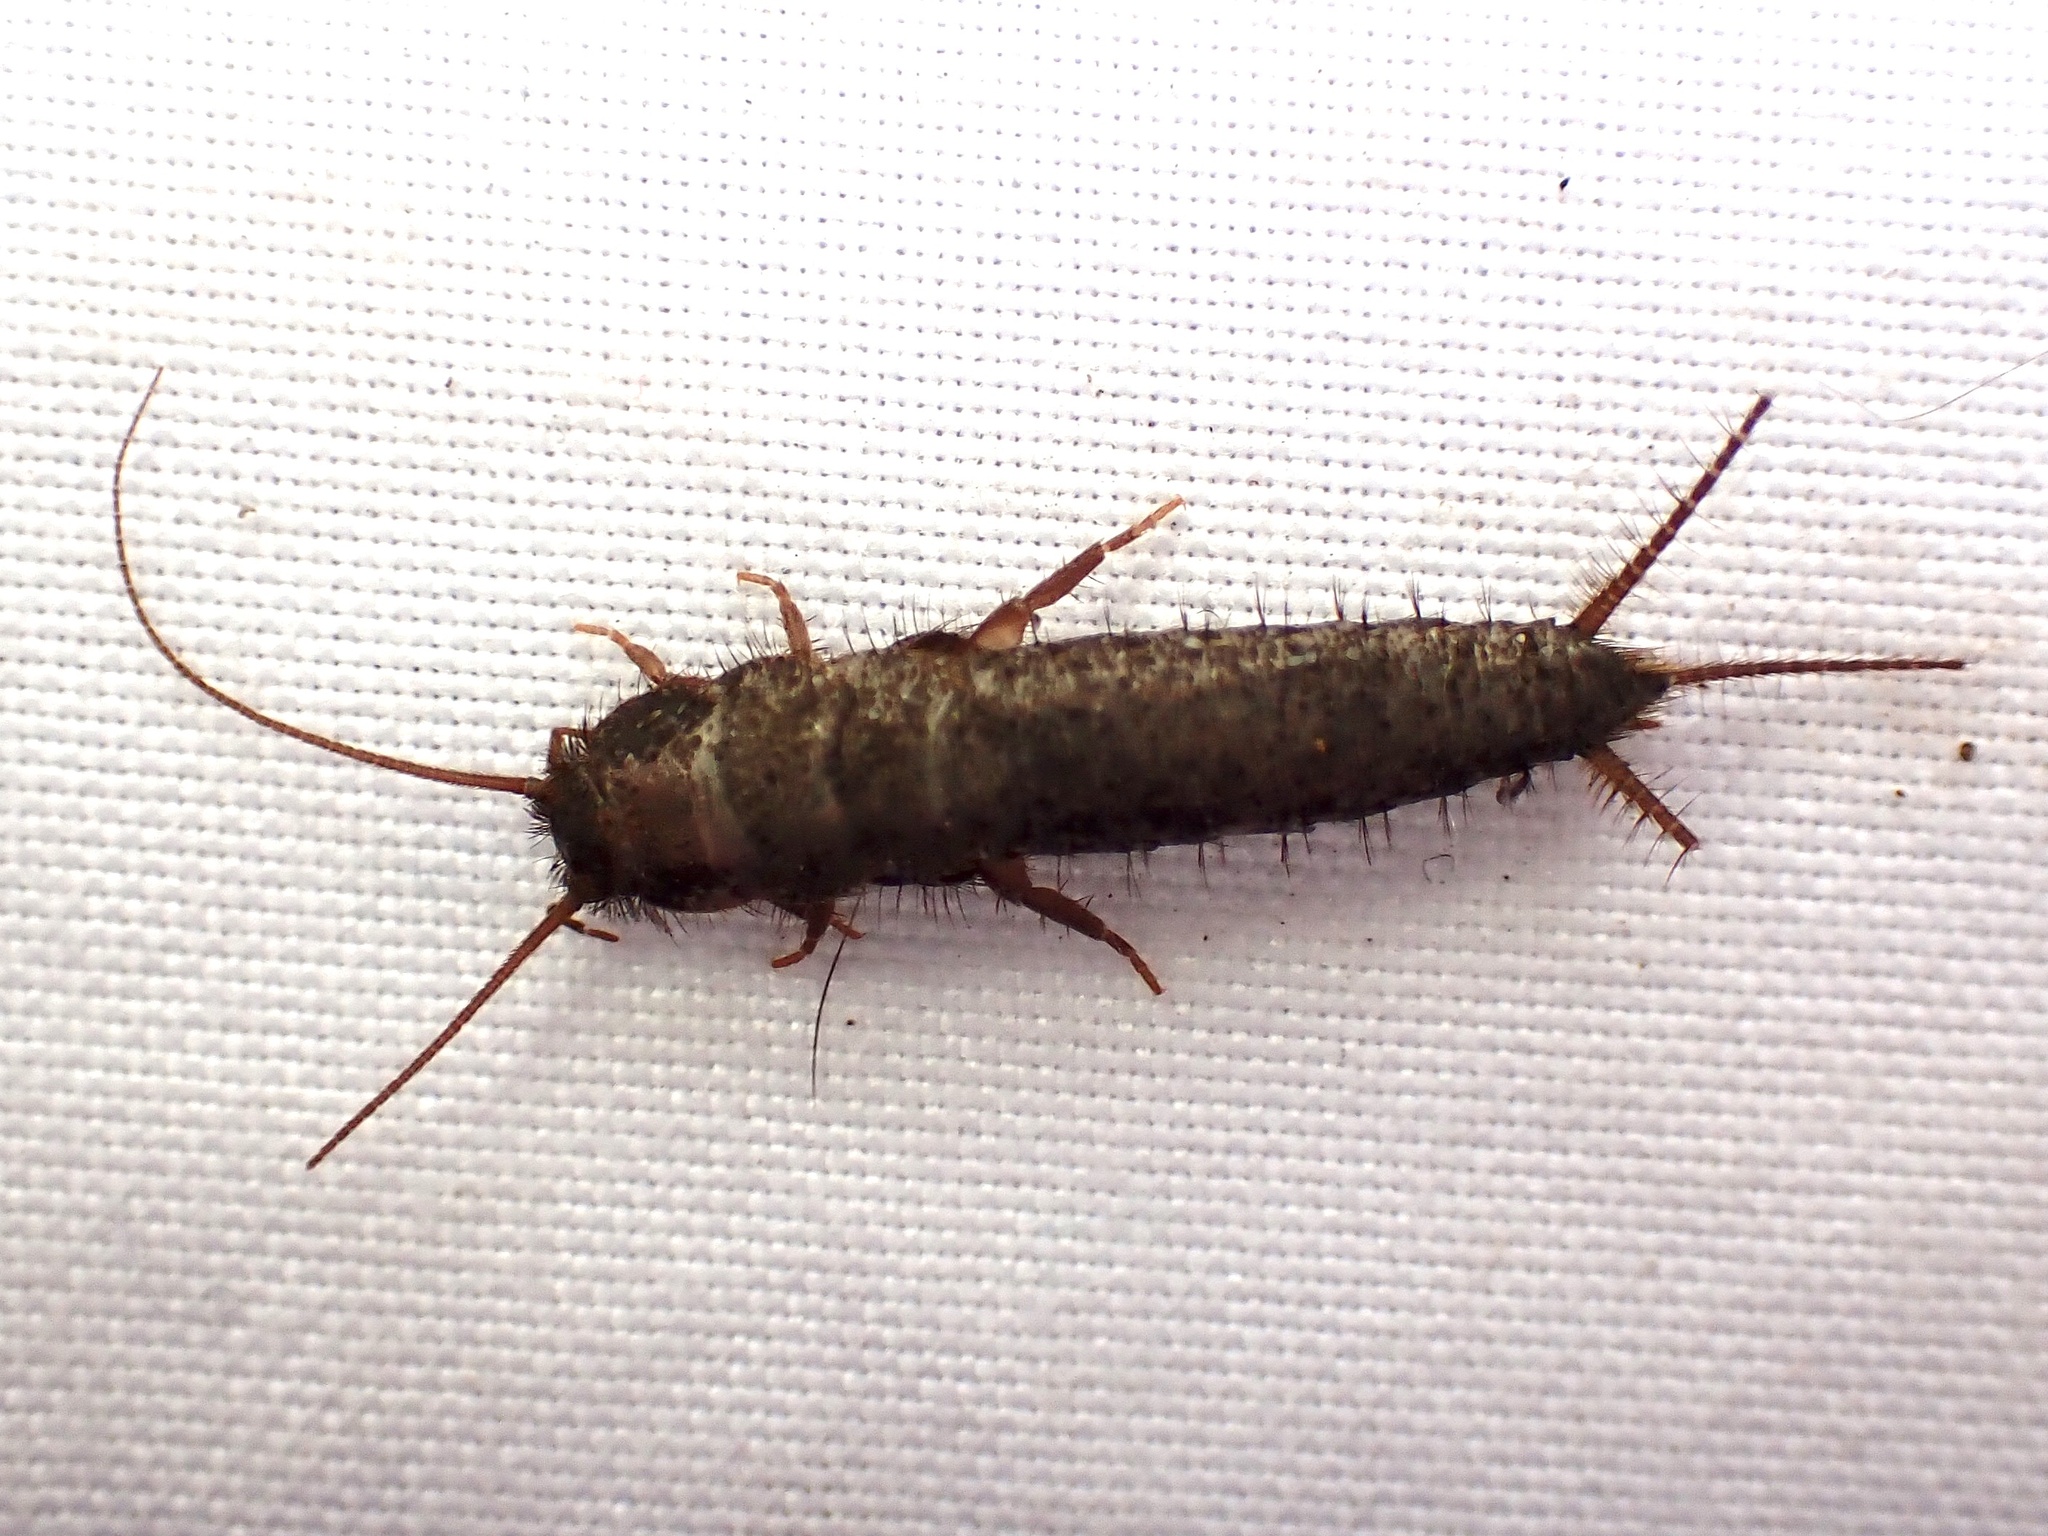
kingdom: Animalia
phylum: Arthropoda
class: Insecta
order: Zygentoma
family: Lepismatidae
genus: Allacrotelsa
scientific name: Allacrotelsa spinulata
